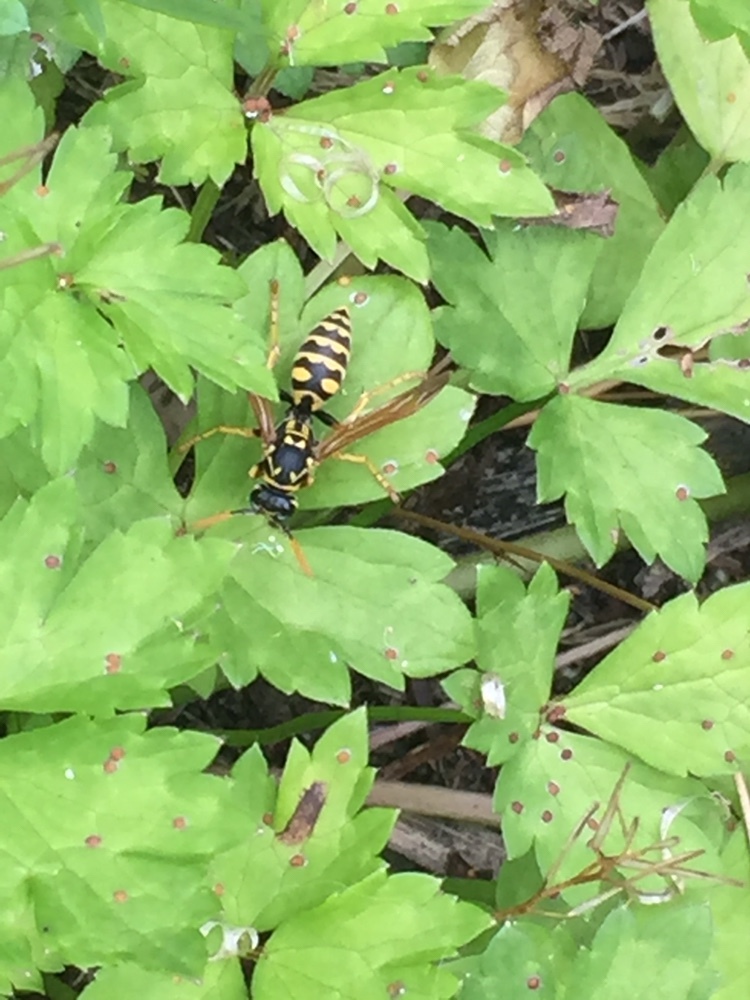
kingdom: Animalia
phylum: Arthropoda
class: Insecta
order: Hymenoptera
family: Eumenidae
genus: Polistes
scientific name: Polistes dominula
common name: Paper wasp
